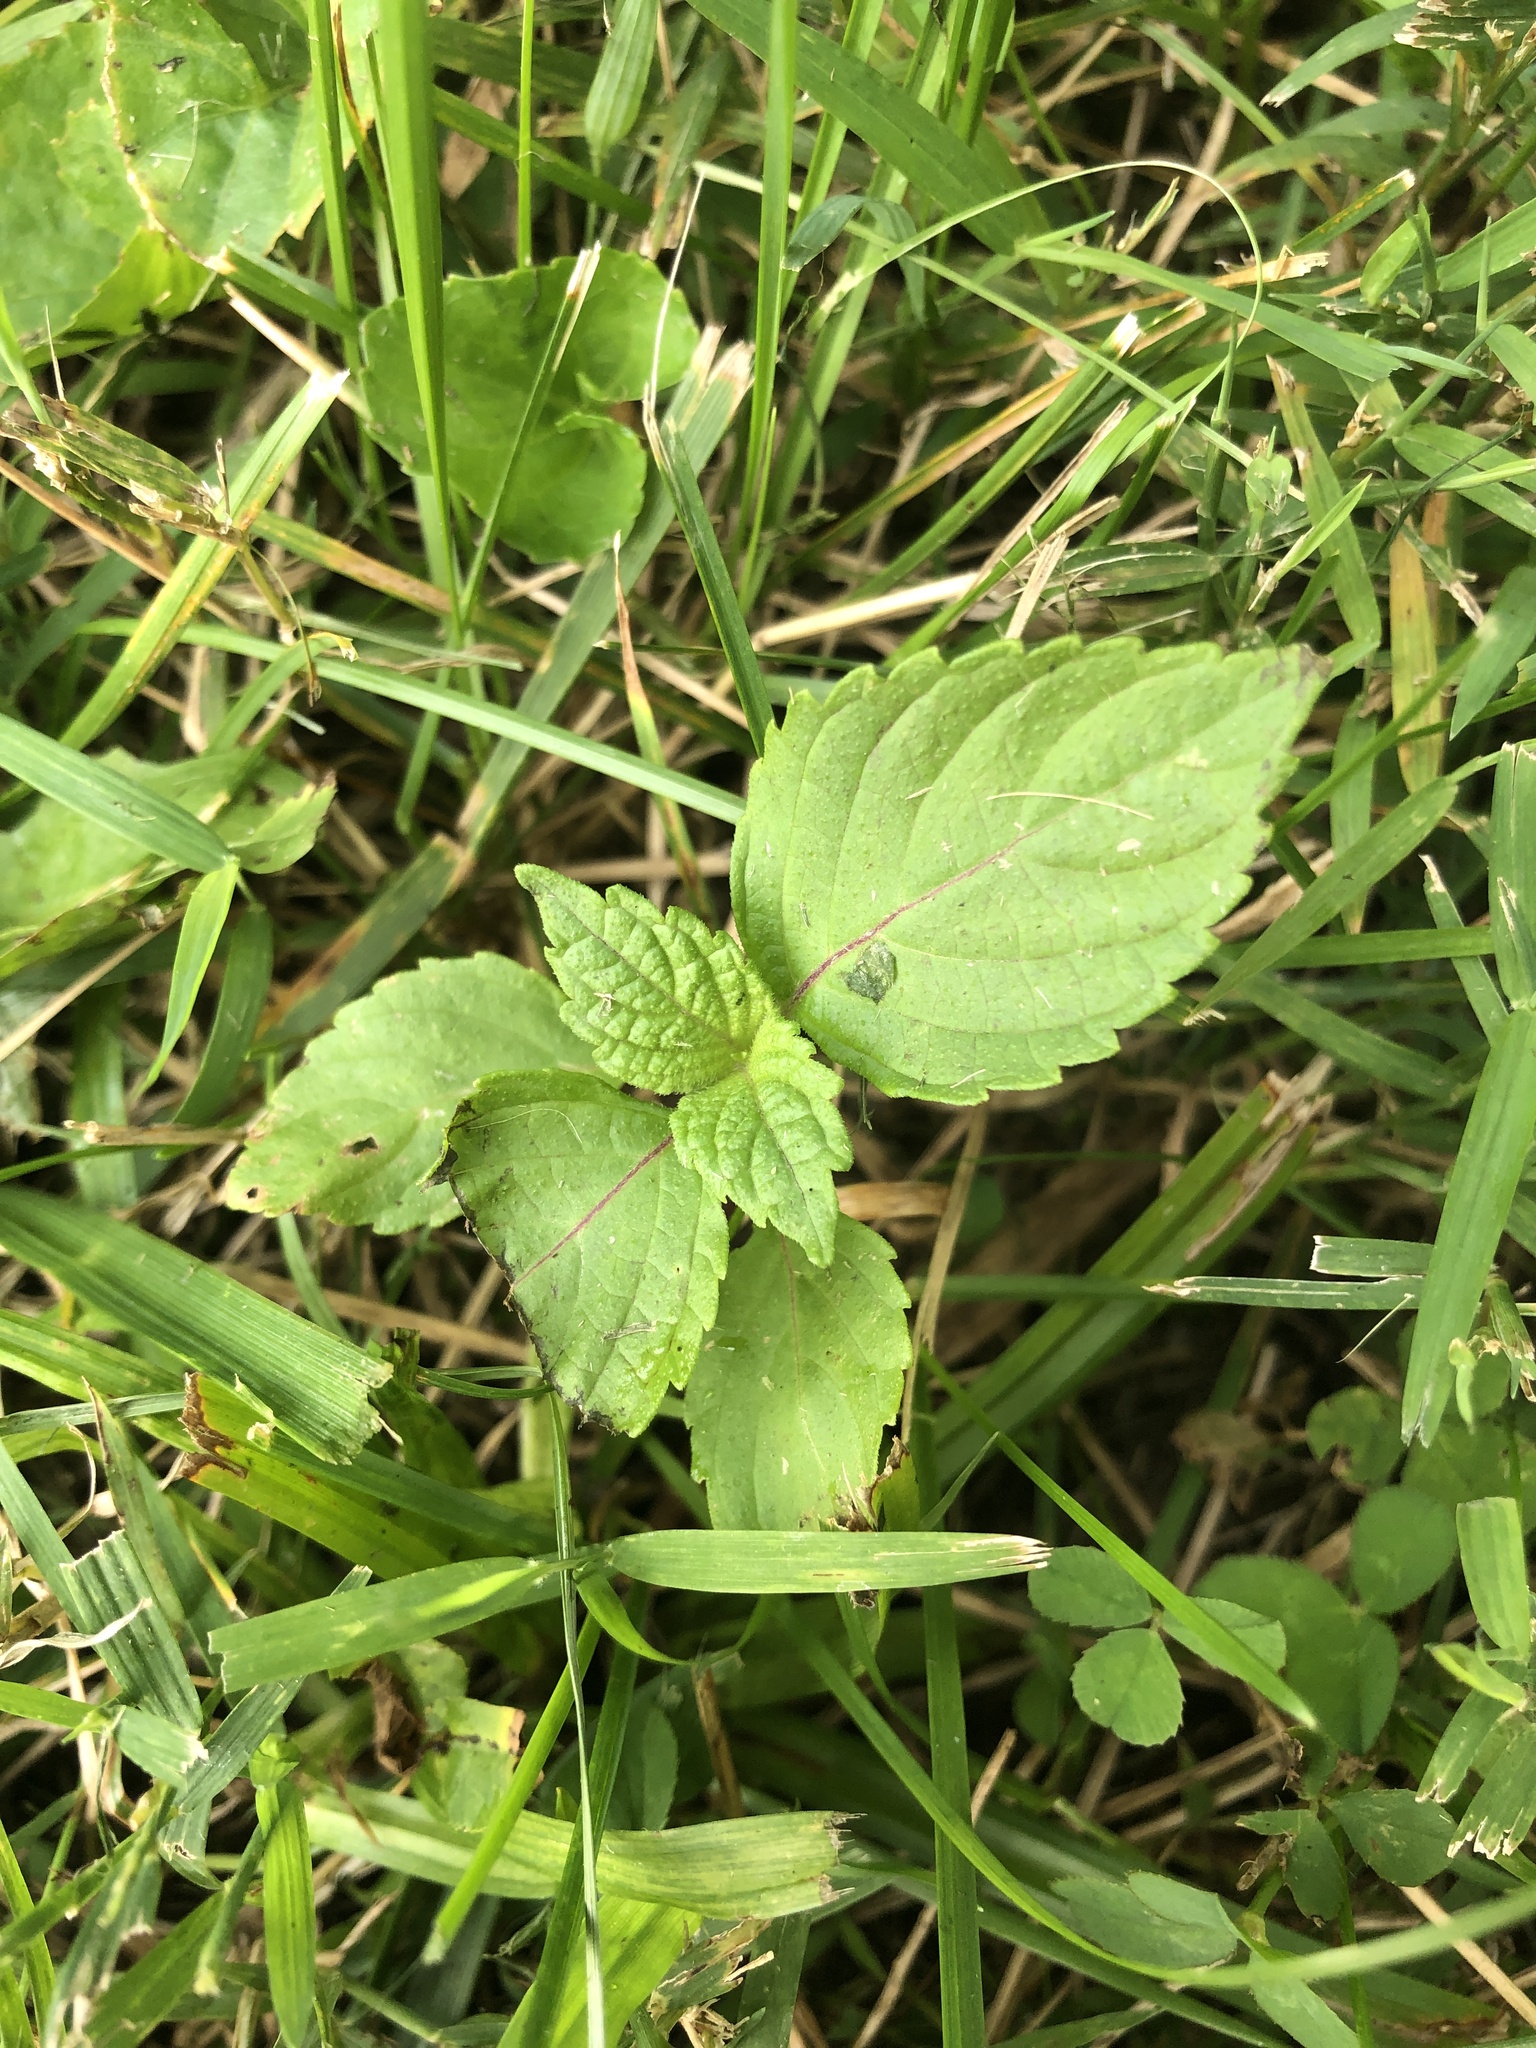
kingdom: Plantae
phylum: Tracheophyta
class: Magnoliopsida
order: Lamiales
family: Lamiaceae
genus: Perilla
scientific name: Perilla frutescens
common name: Perilla
